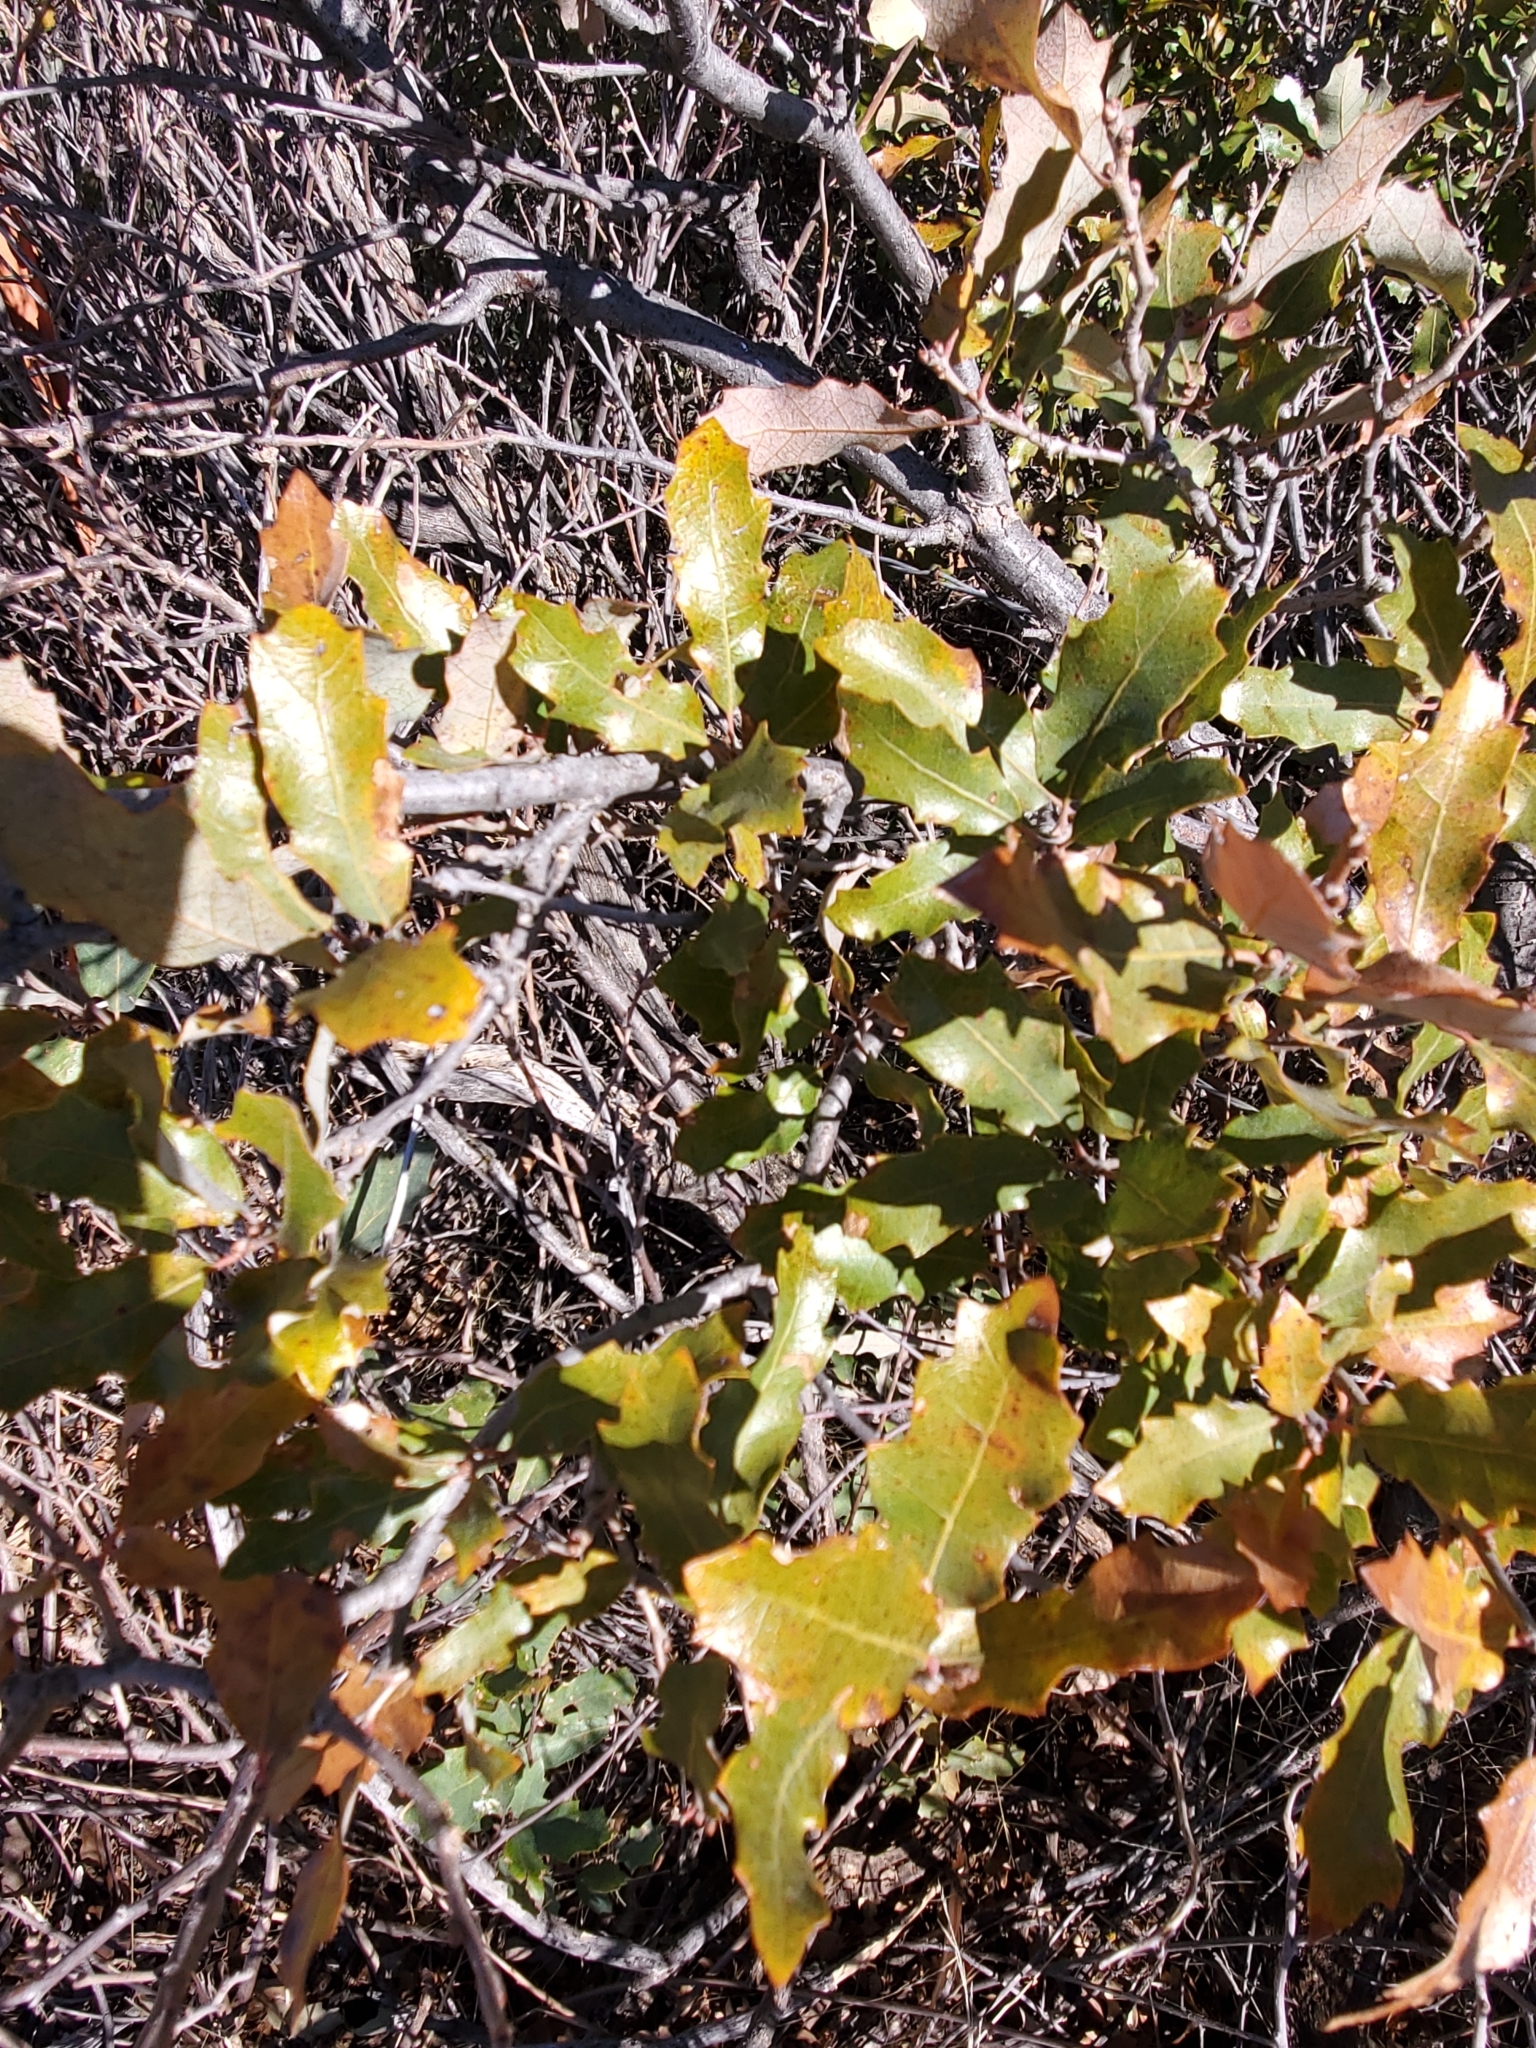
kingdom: Plantae
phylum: Tracheophyta
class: Magnoliopsida
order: Fagales
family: Fagaceae
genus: Quercus
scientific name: Quercus havardii
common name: Shinnery oak
